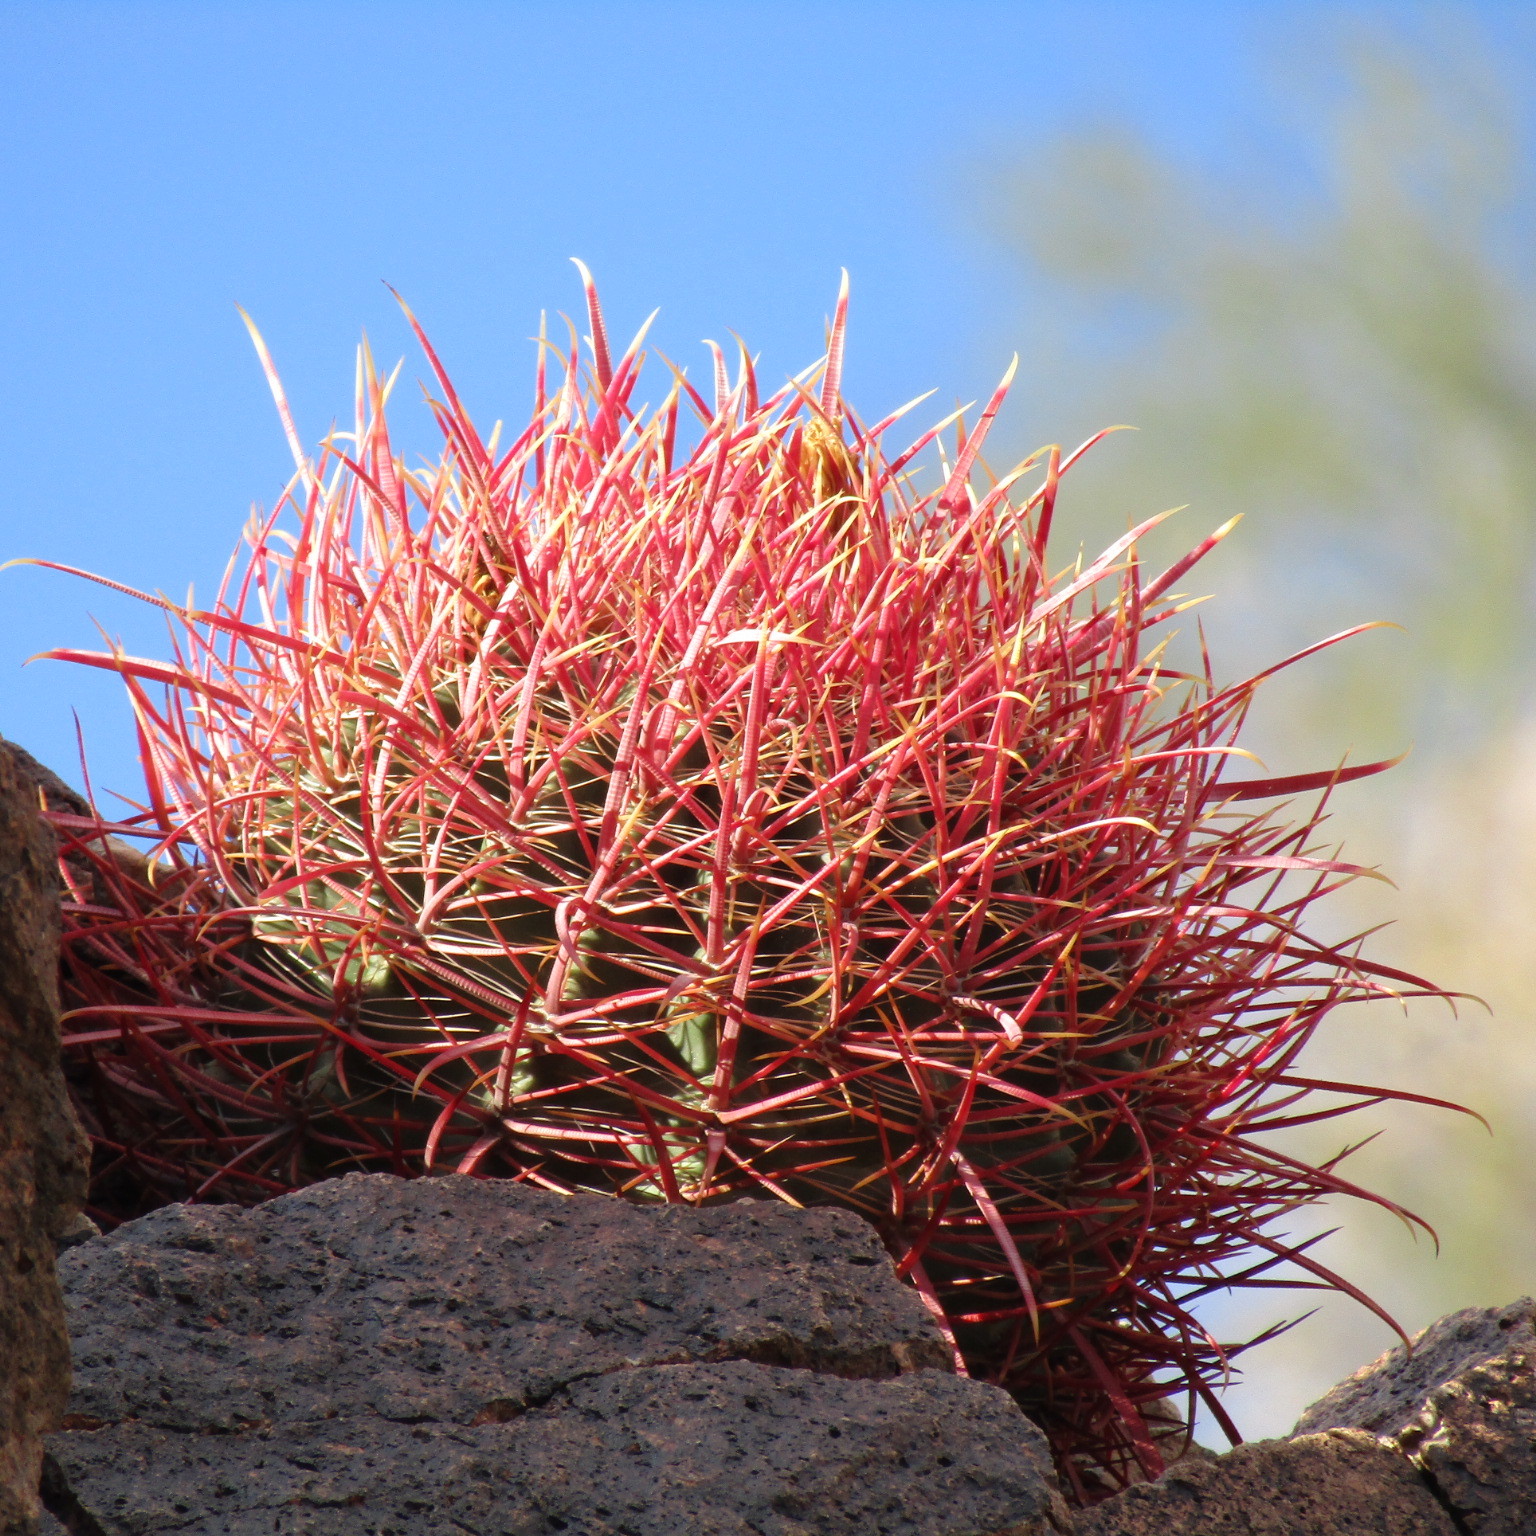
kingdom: Plantae
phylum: Tracheophyta
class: Magnoliopsida
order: Caryophyllales
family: Cactaceae
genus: Ferocactus
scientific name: Ferocactus cylindraceus
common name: California barrel cactus
